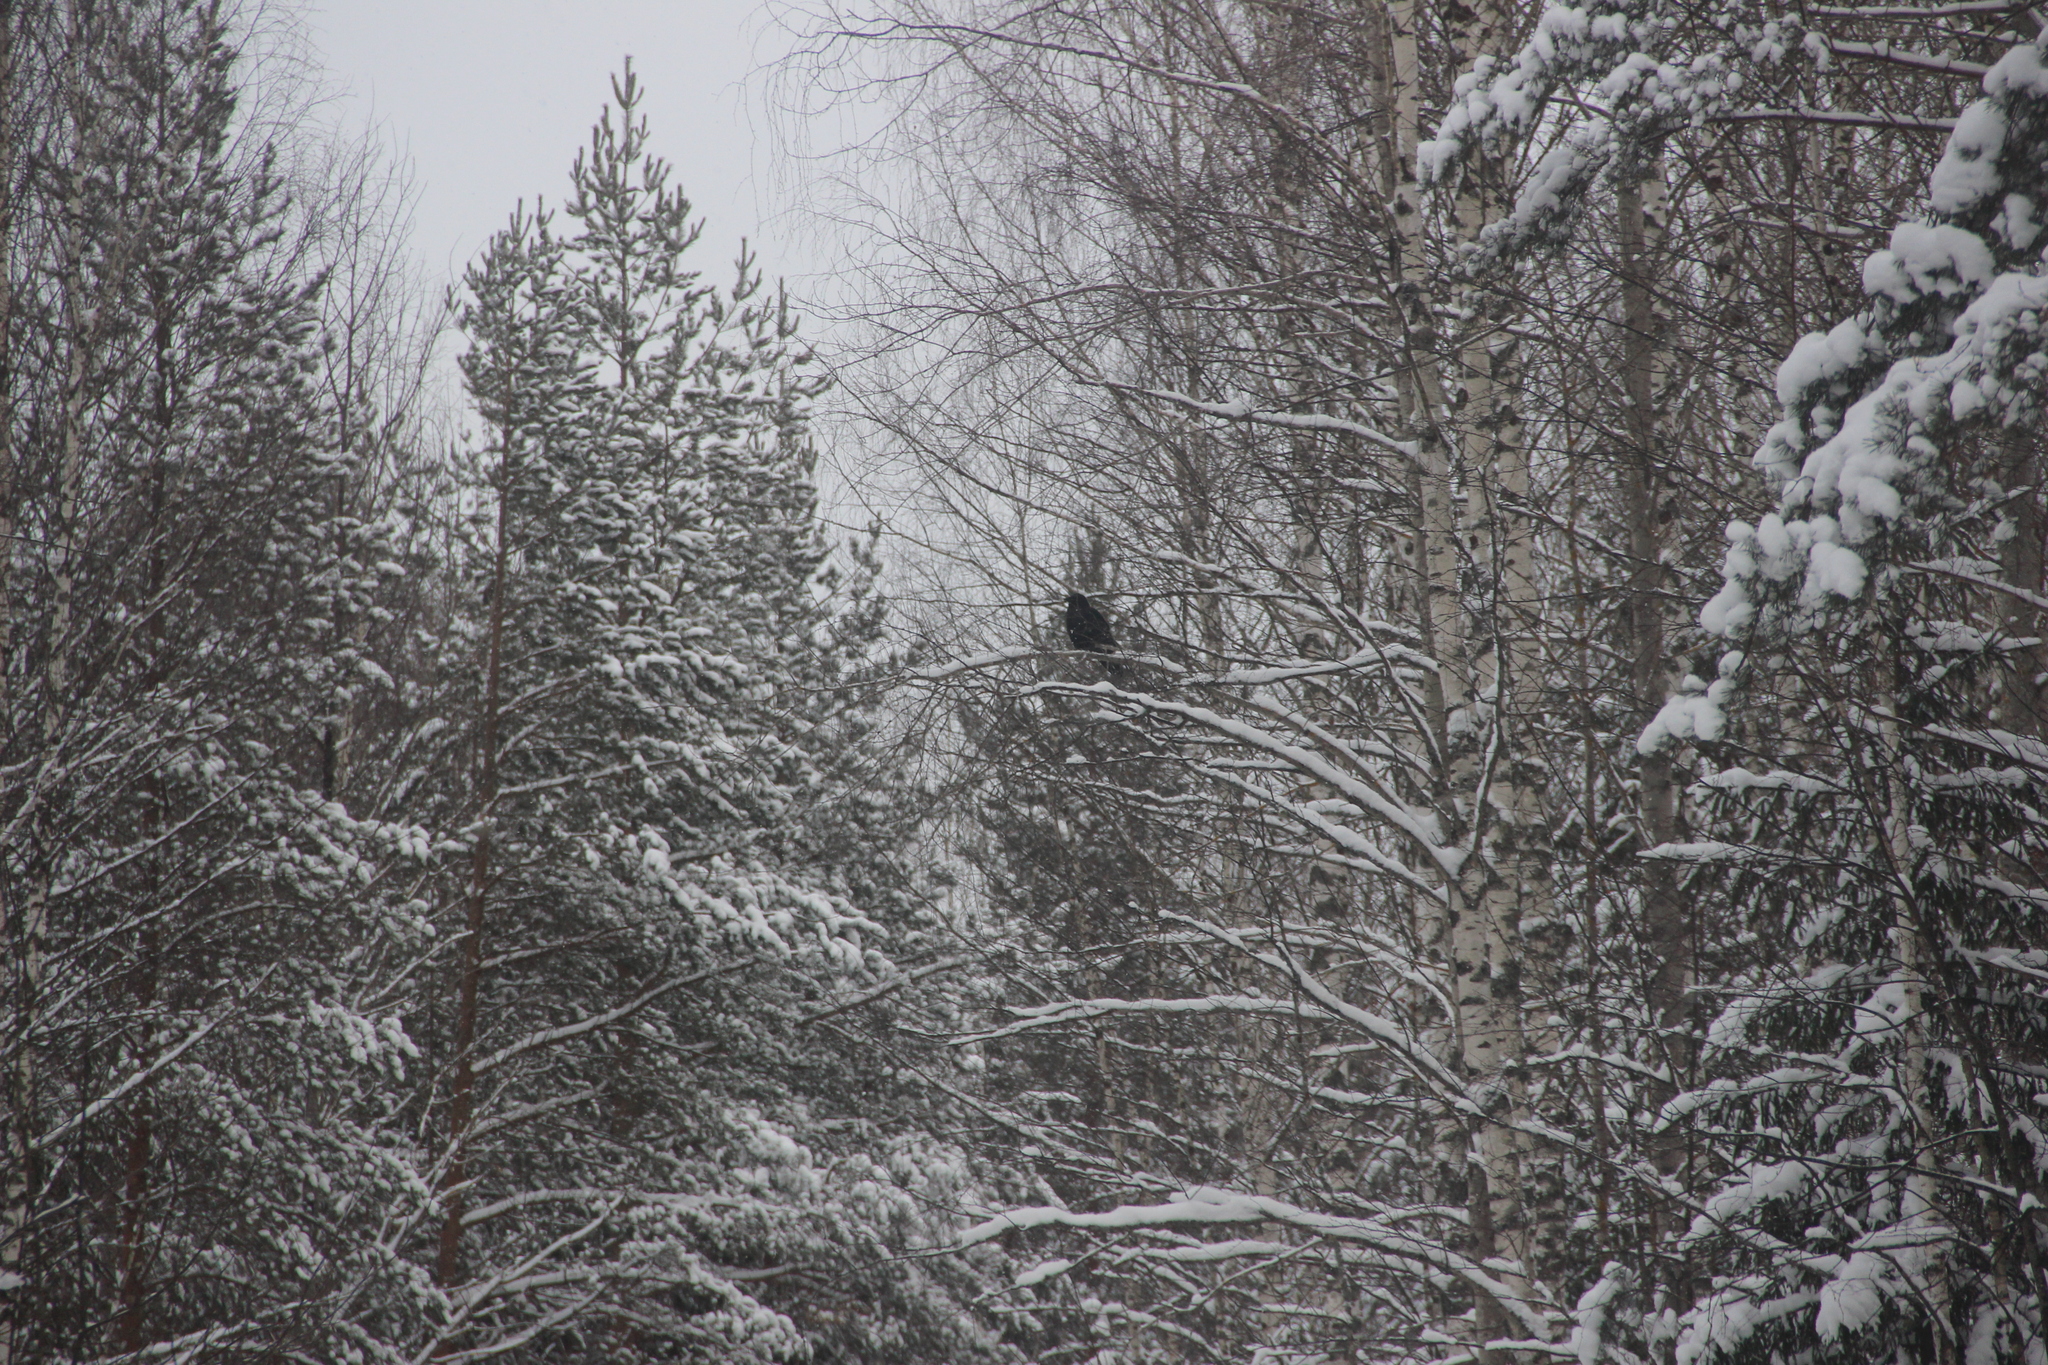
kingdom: Animalia
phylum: Chordata
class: Aves
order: Passeriformes
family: Corvidae
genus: Corvus
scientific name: Corvus corax
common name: Common raven
